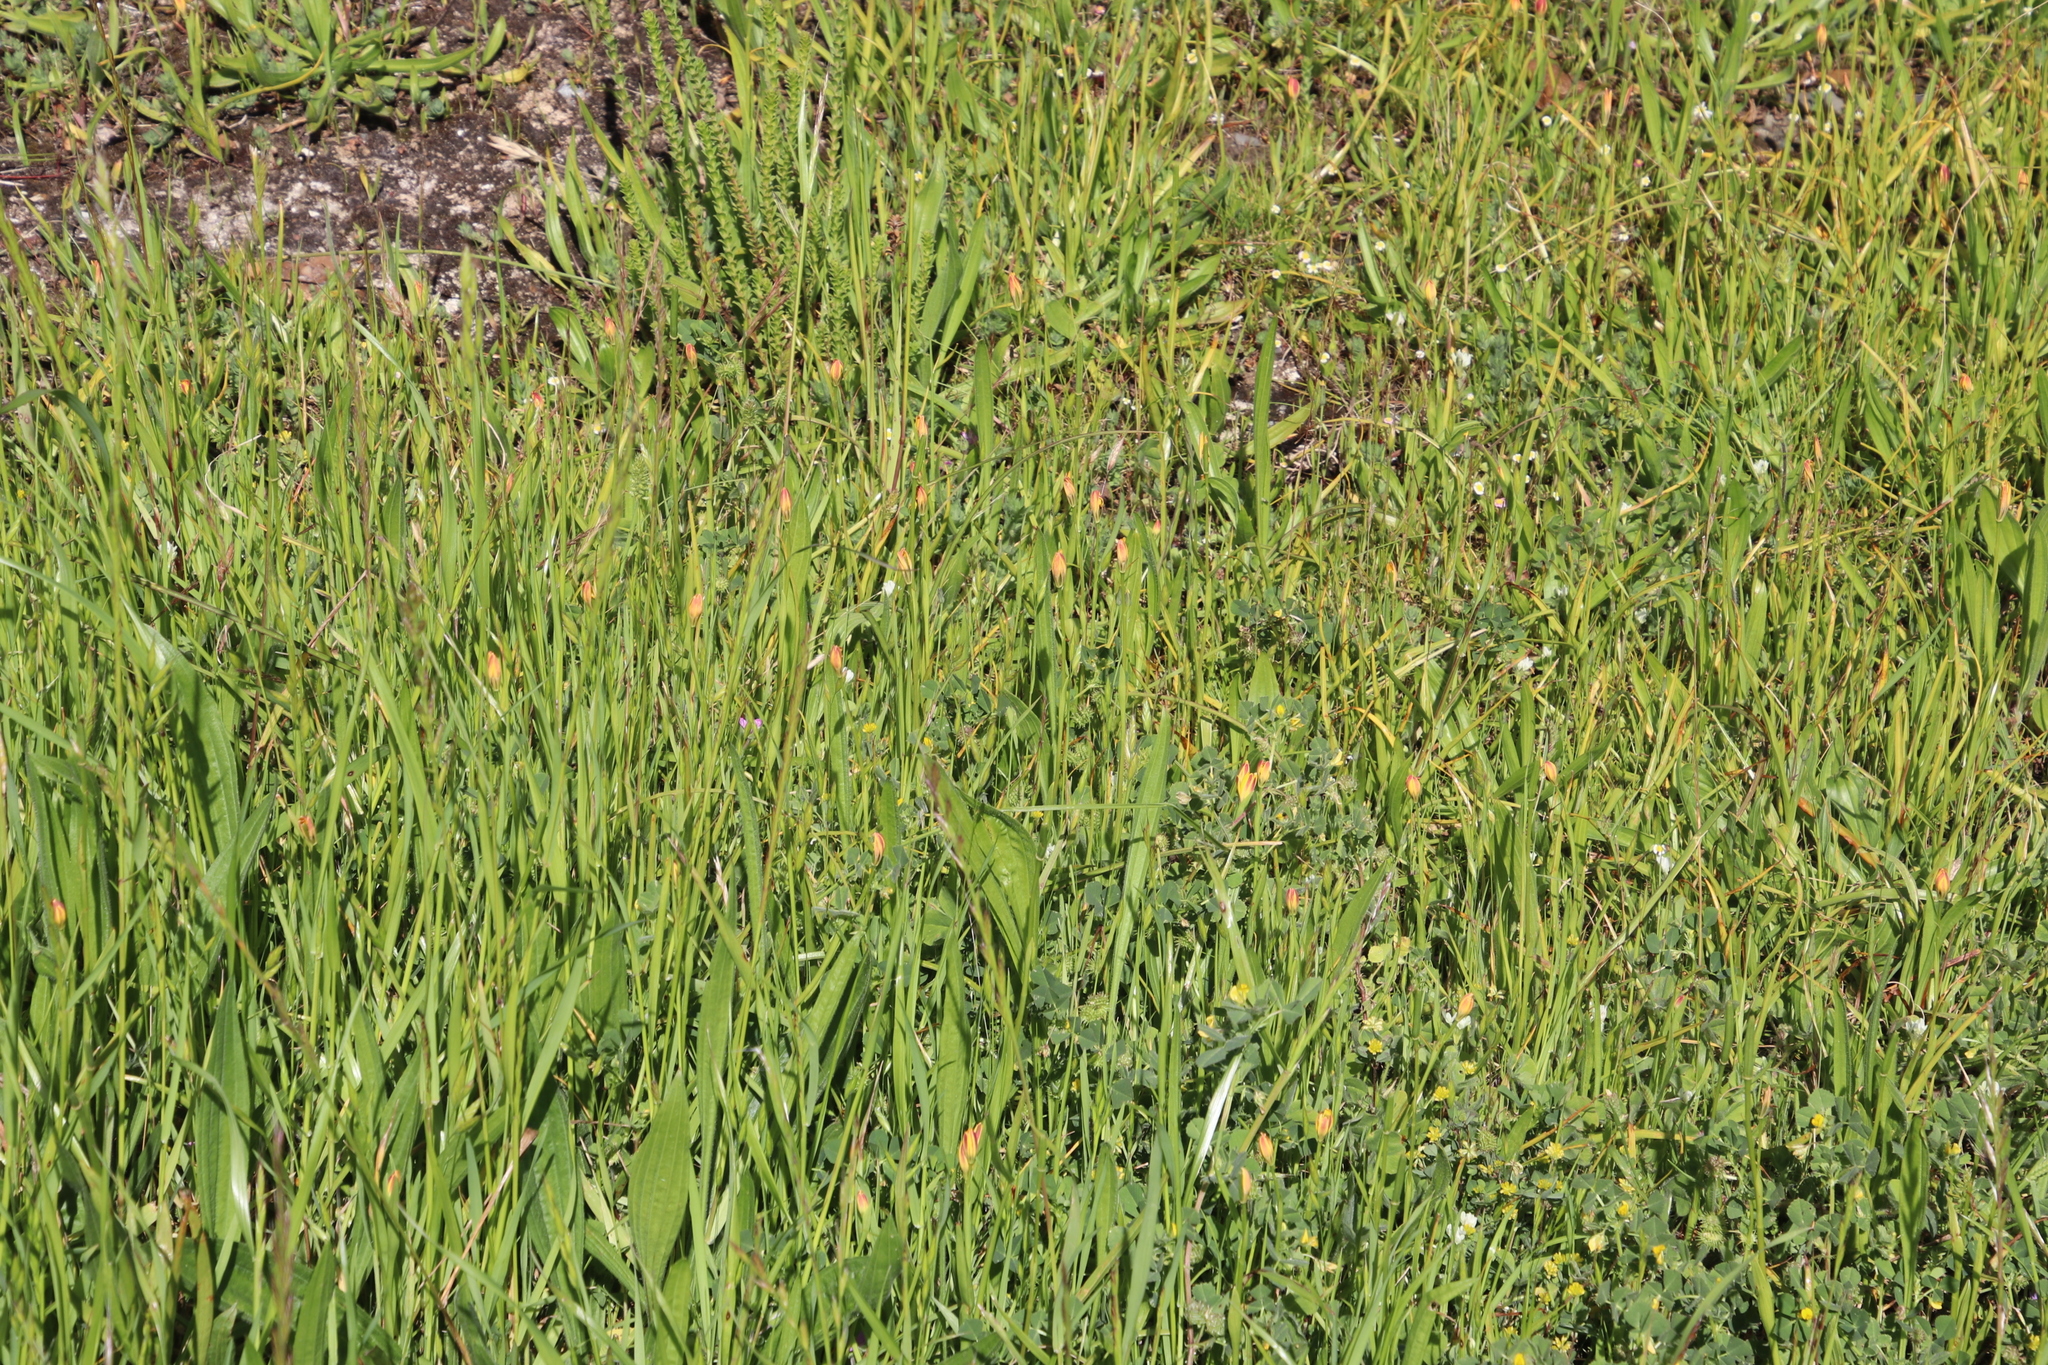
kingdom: Plantae
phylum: Tracheophyta
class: Liliopsida
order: Liliales
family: Colchicaceae
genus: Baeometra
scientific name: Baeometra uniflora
